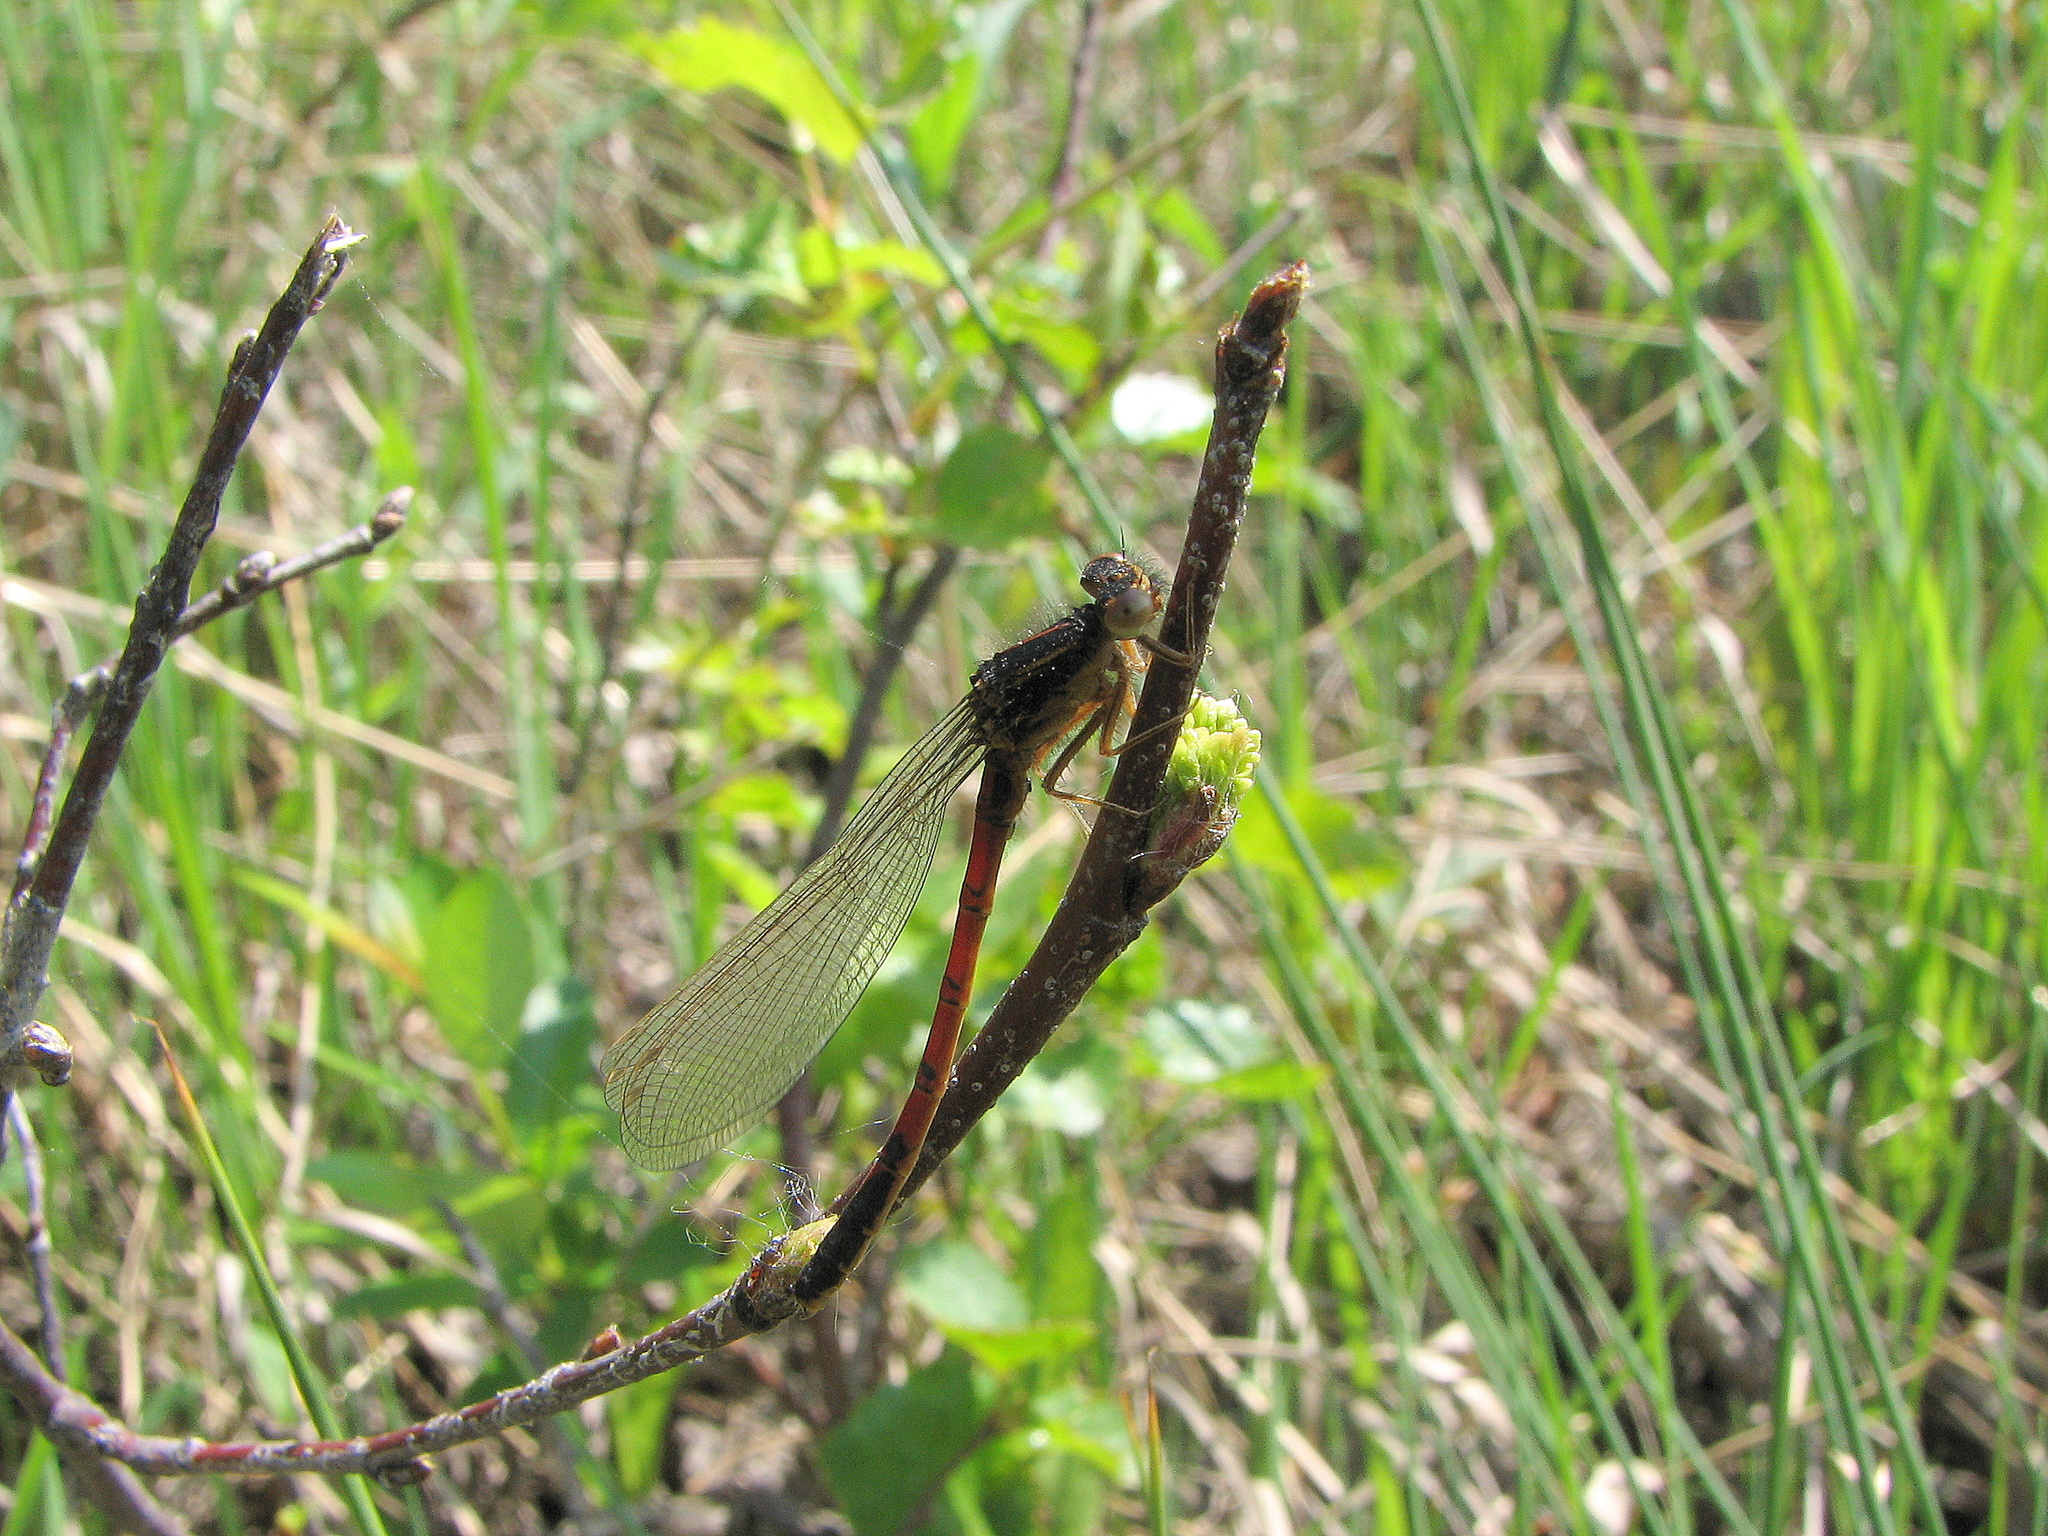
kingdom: Animalia
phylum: Arthropoda
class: Insecta
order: Odonata
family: Coenagrionidae
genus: Amphiagrion
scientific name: Amphiagrion abbreviatum
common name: Western red damsel
